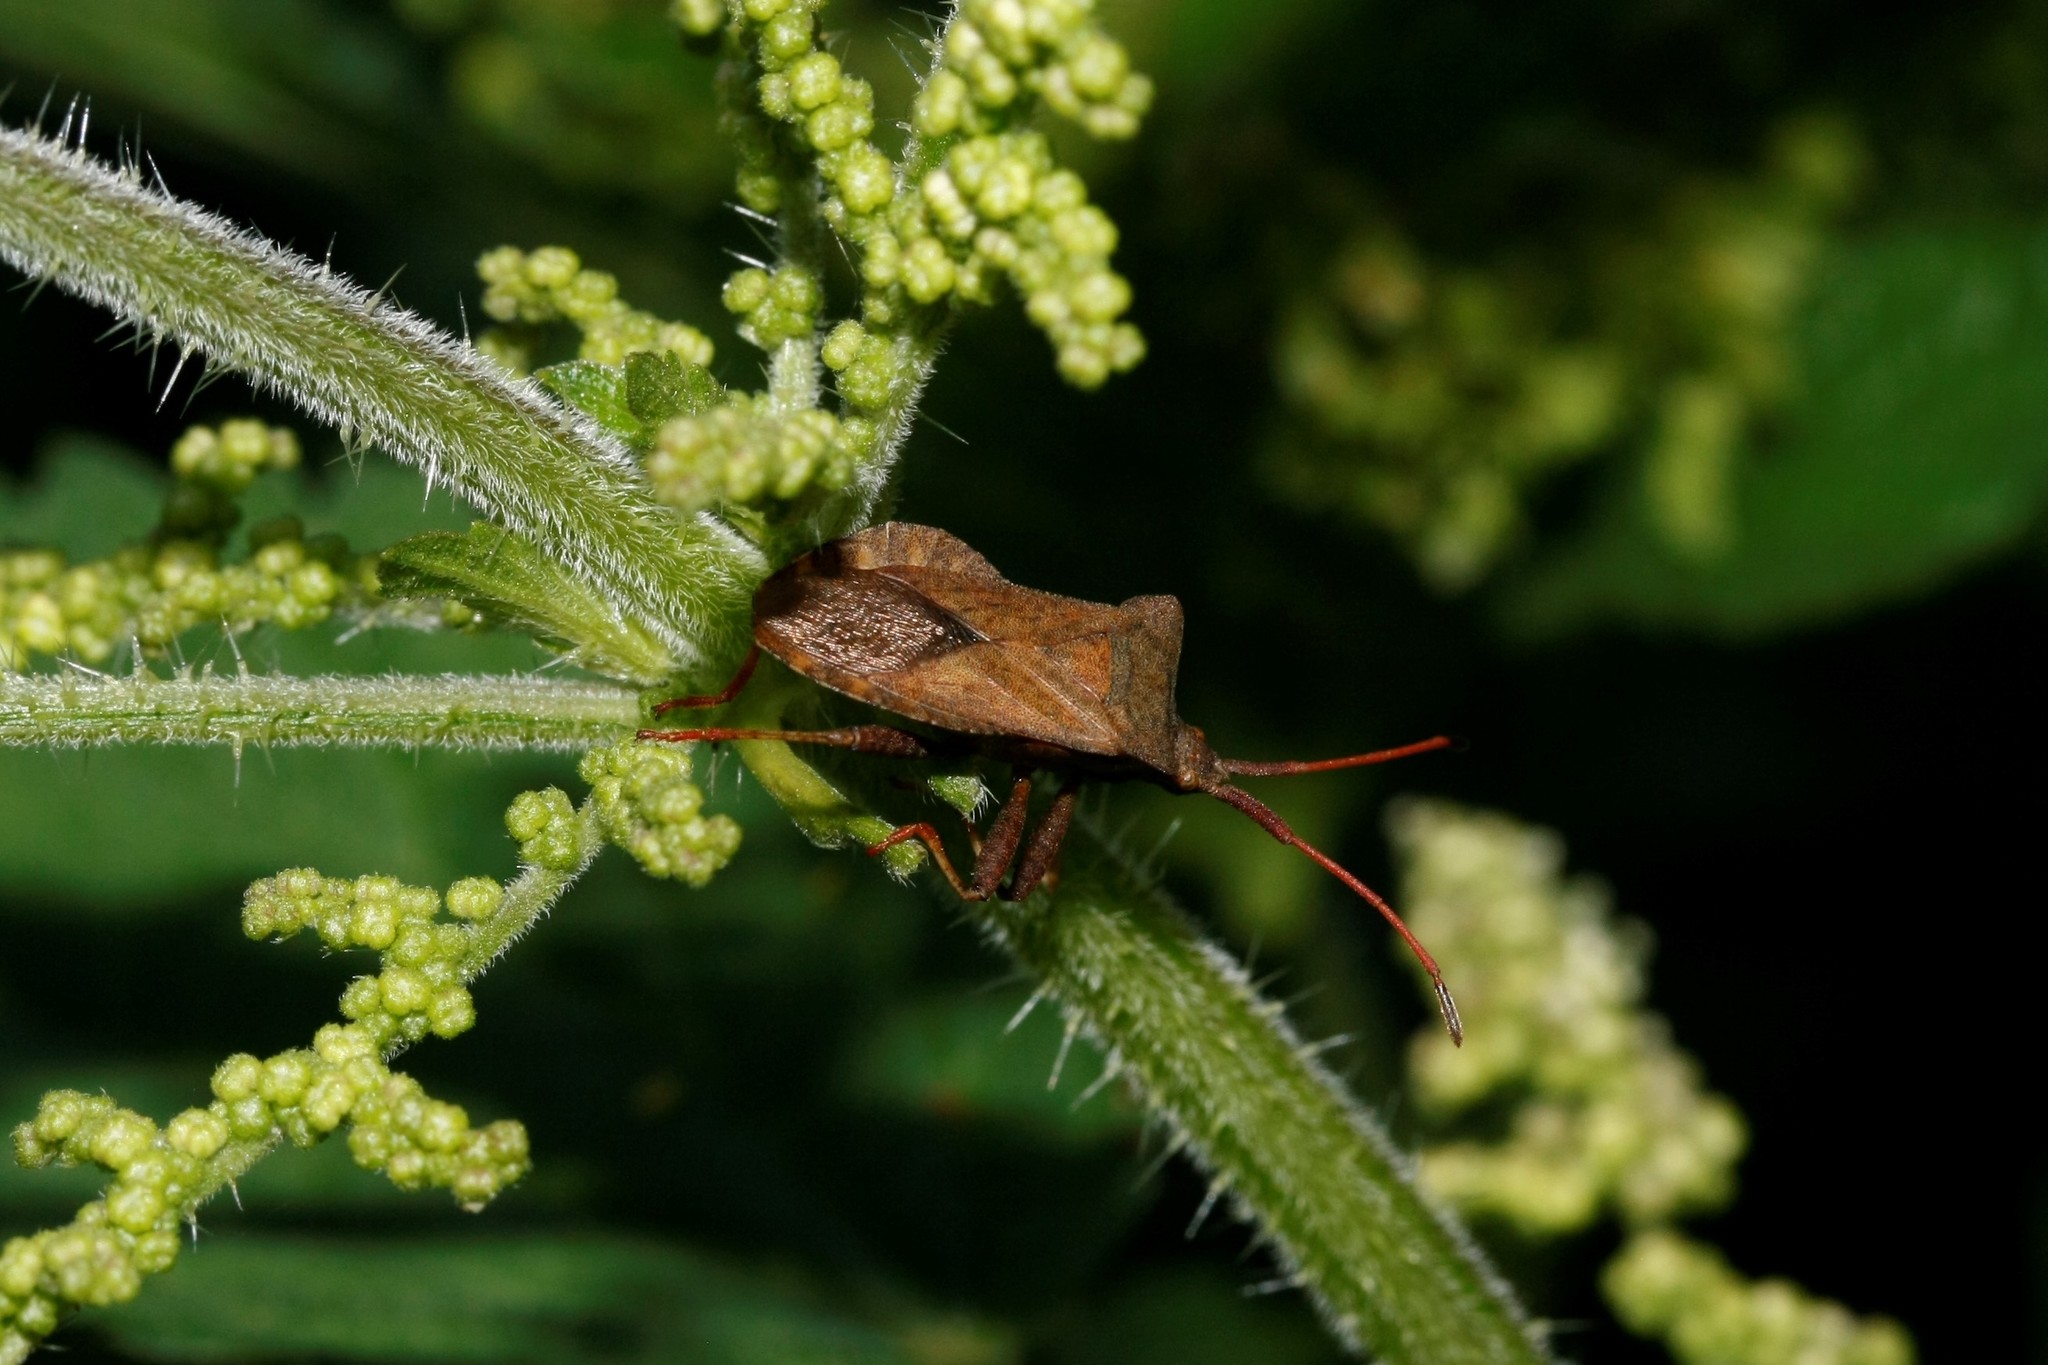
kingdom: Animalia
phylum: Arthropoda
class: Insecta
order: Hemiptera
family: Coreidae
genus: Coreus
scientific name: Coreus marginatus
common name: Dock bug
